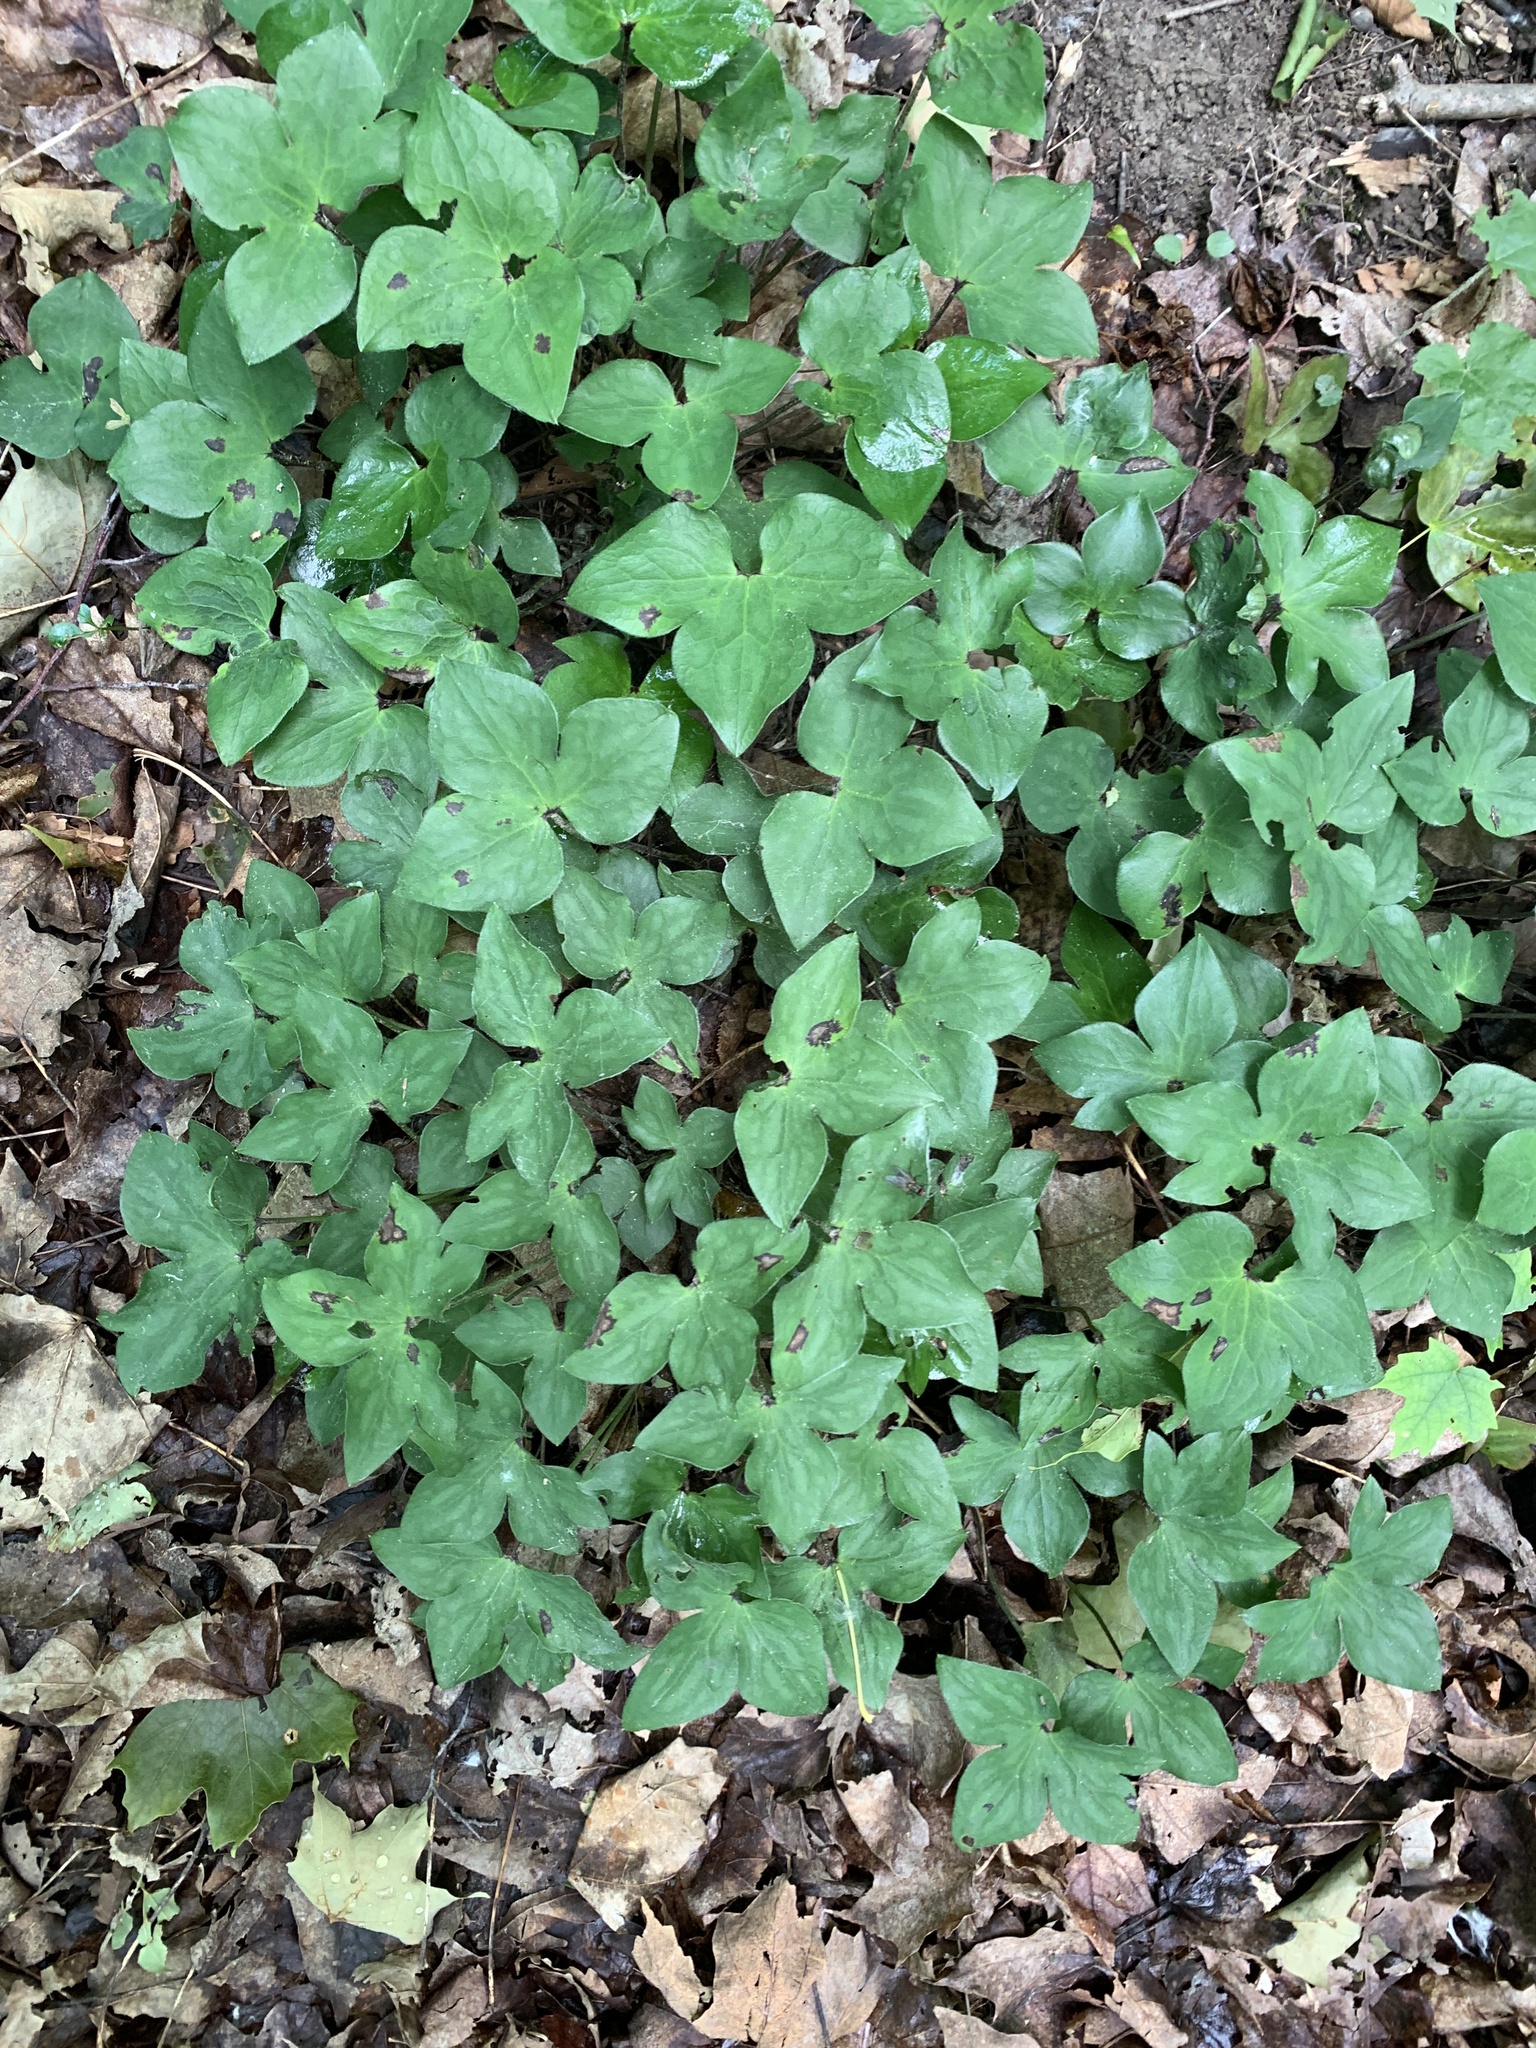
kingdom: Plantae
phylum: Tracheophyta
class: Magnoliopsida
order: Ranunculales
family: Ranunculaceae
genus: Hepatica
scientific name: Hepatica acutiloba
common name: Sharp-lobed hepatica
